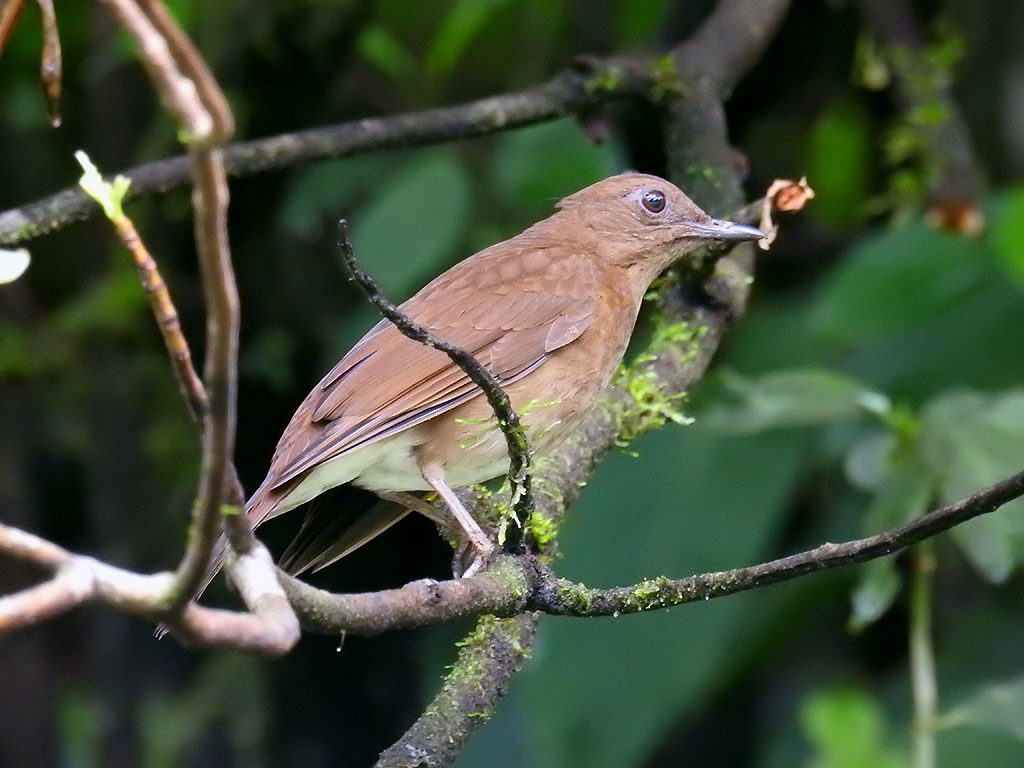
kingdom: Animalia
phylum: Chordata
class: Aves
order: Passeriformes
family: Turdidae
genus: Turdus
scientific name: Turdus obsoletus
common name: Pale-vented thrush
